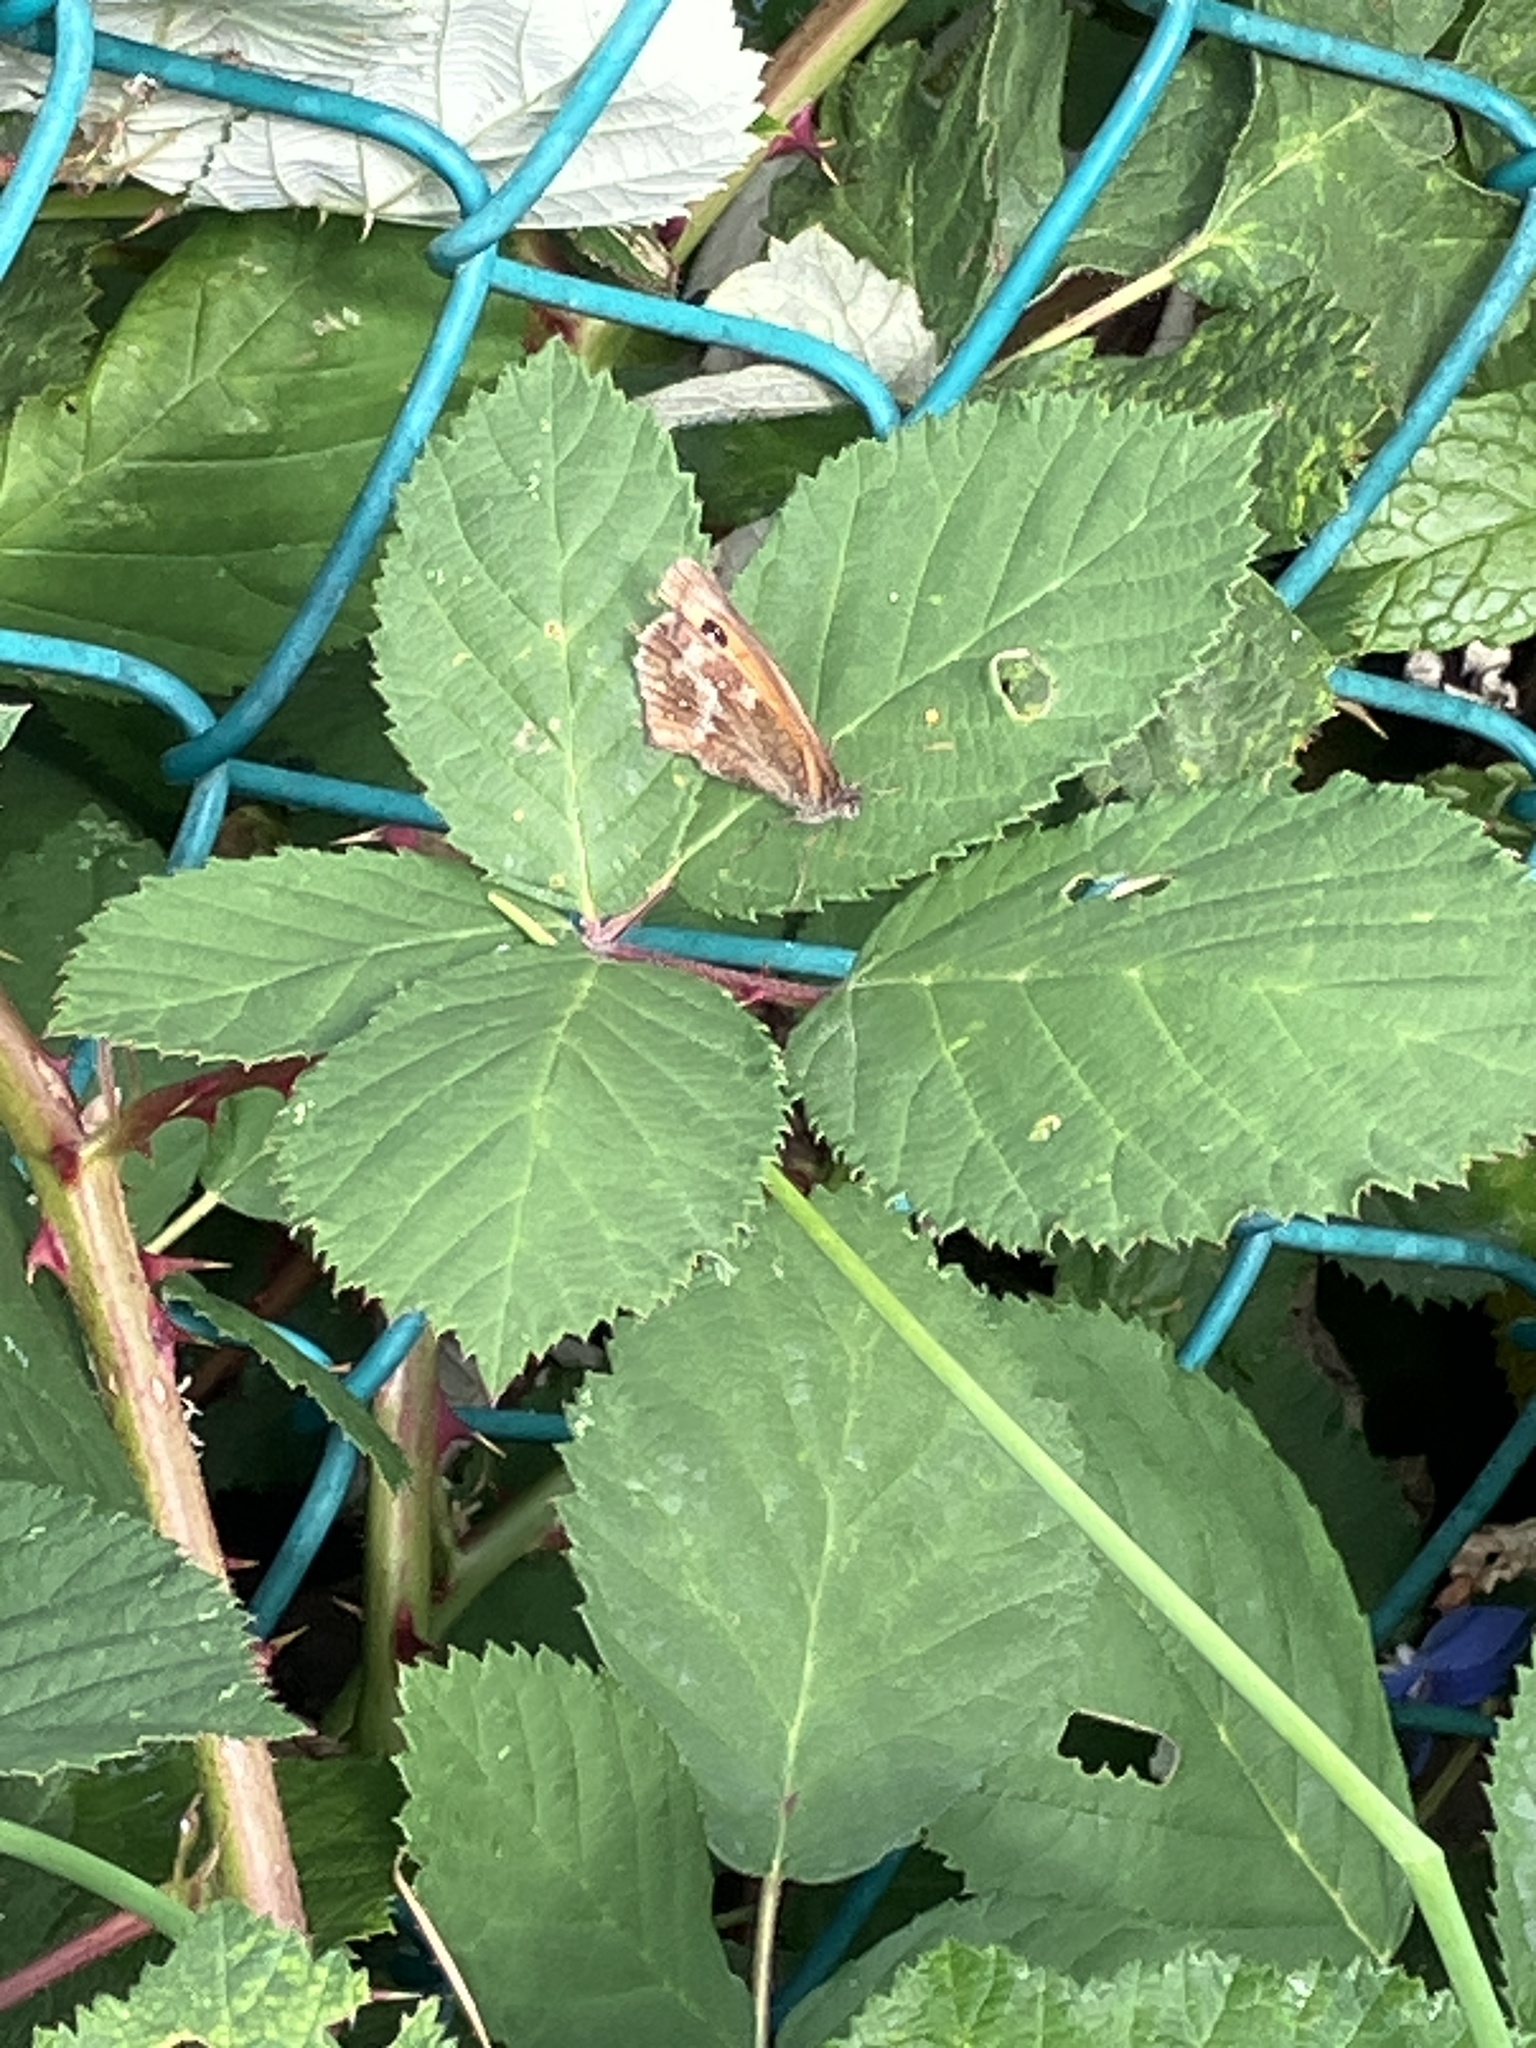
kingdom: Animalia
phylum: Arthropoda
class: Insecta
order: Lepidoptera
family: Nymphalidae
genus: Pyronia
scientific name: Pyronia tithonus
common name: Gatekeeper
